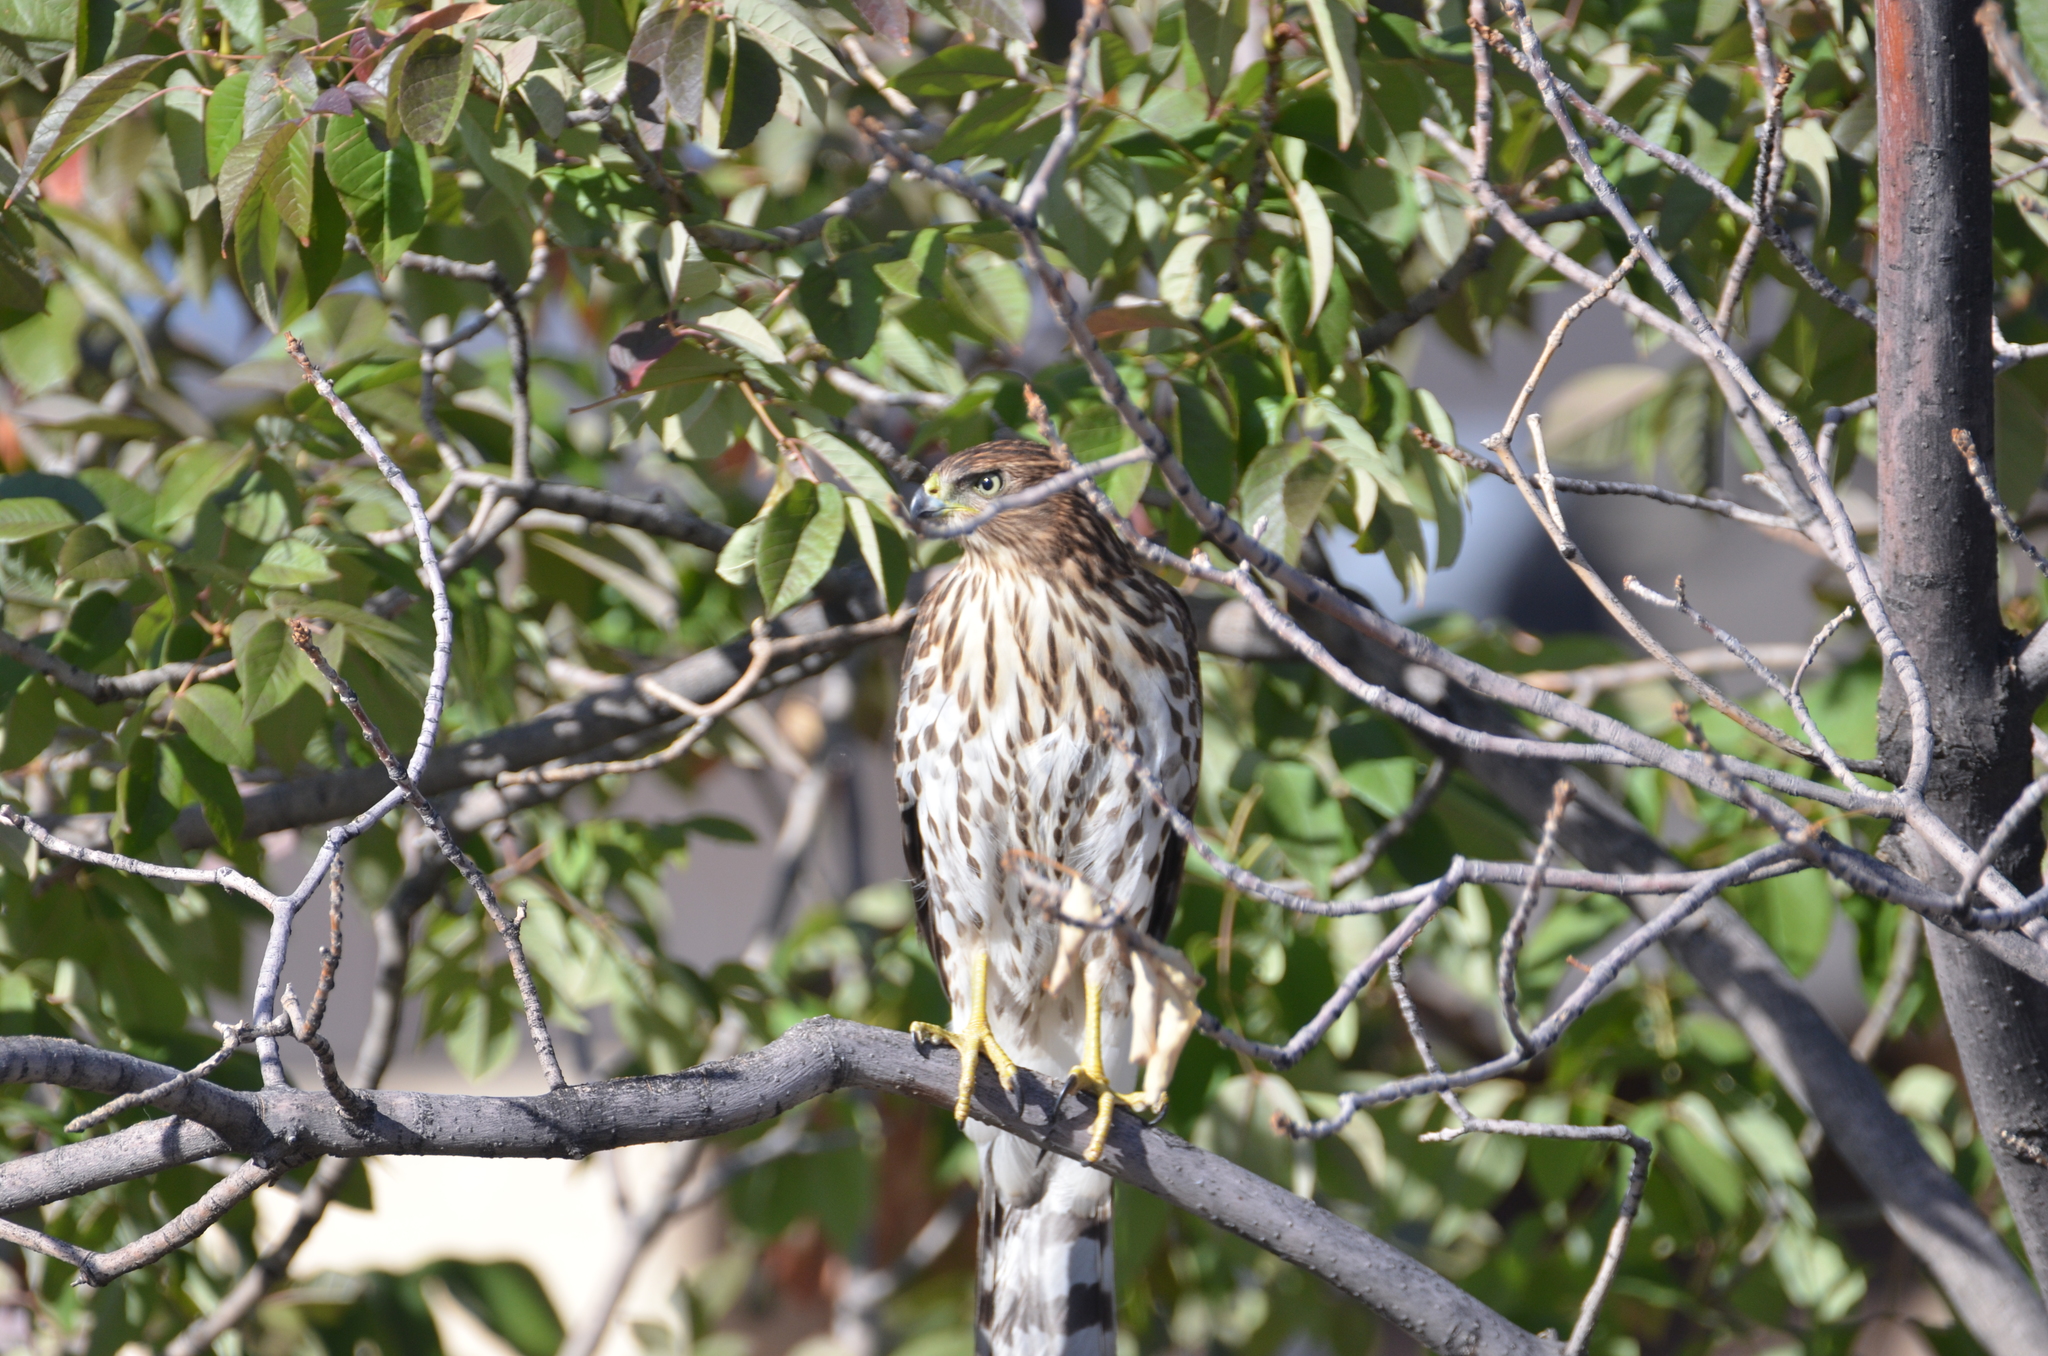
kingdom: Animalia
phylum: Chordata
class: Aves
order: Accipitriformes
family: Accipitridae
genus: Accipiter
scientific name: Accipiter cooperii
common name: Cooper's hawk
